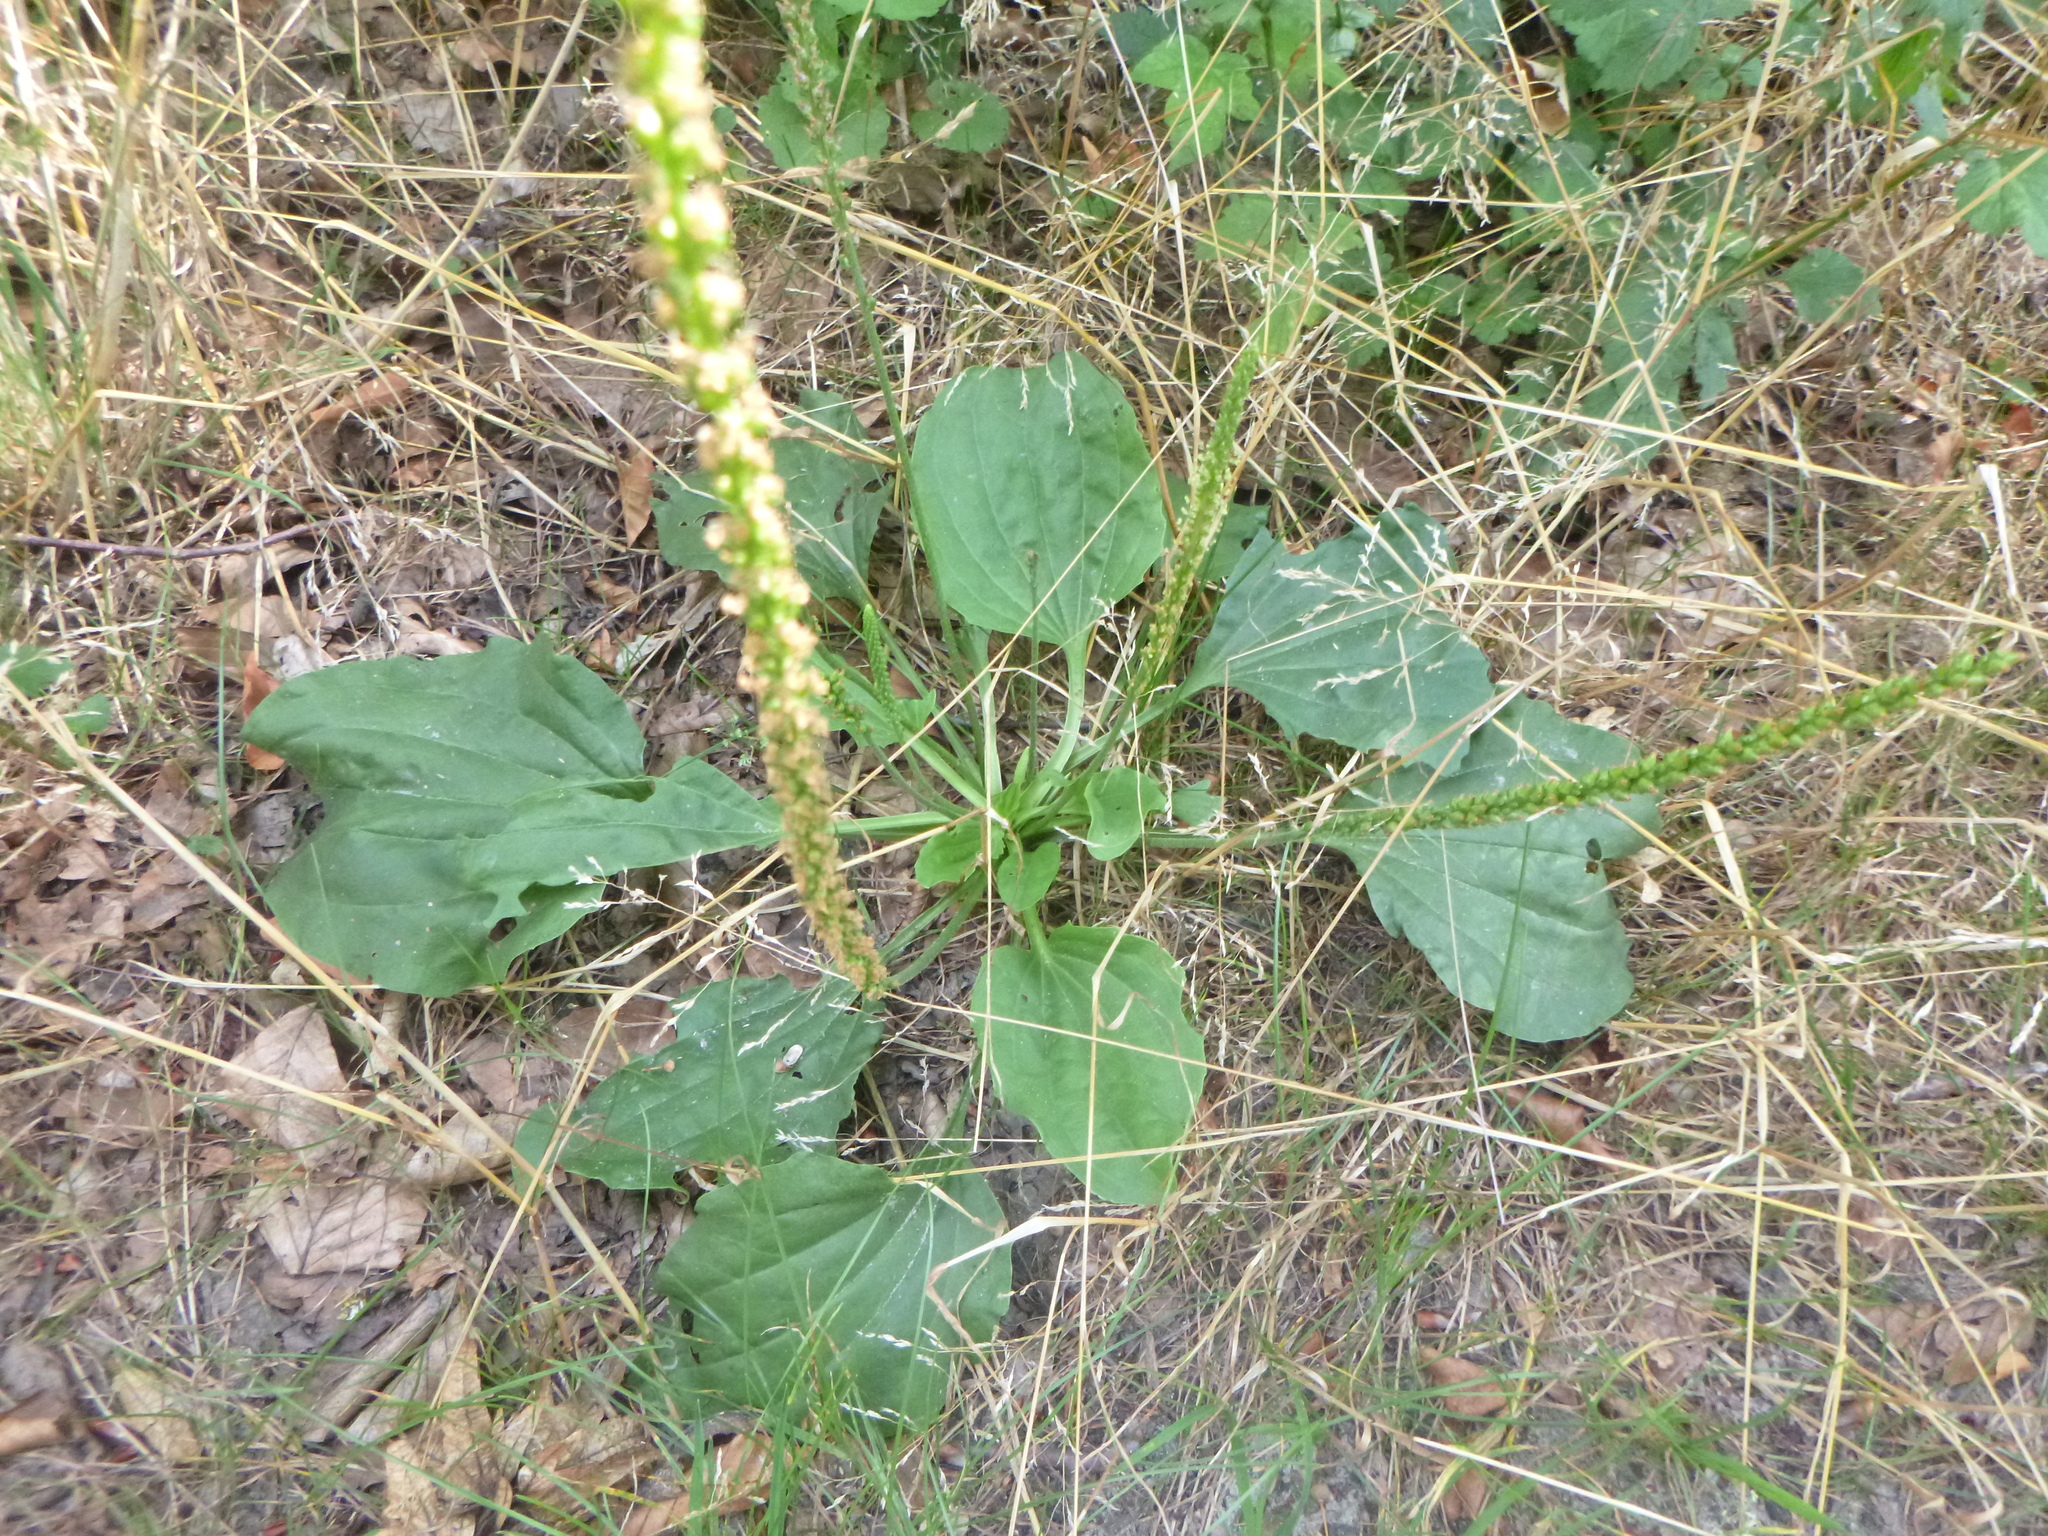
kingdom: Plantae
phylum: Tracheophyta
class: Magnoliopsida
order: Lamiales
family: Plantaginaceae
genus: Plantago
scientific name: Plantago major
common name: Common plantain
